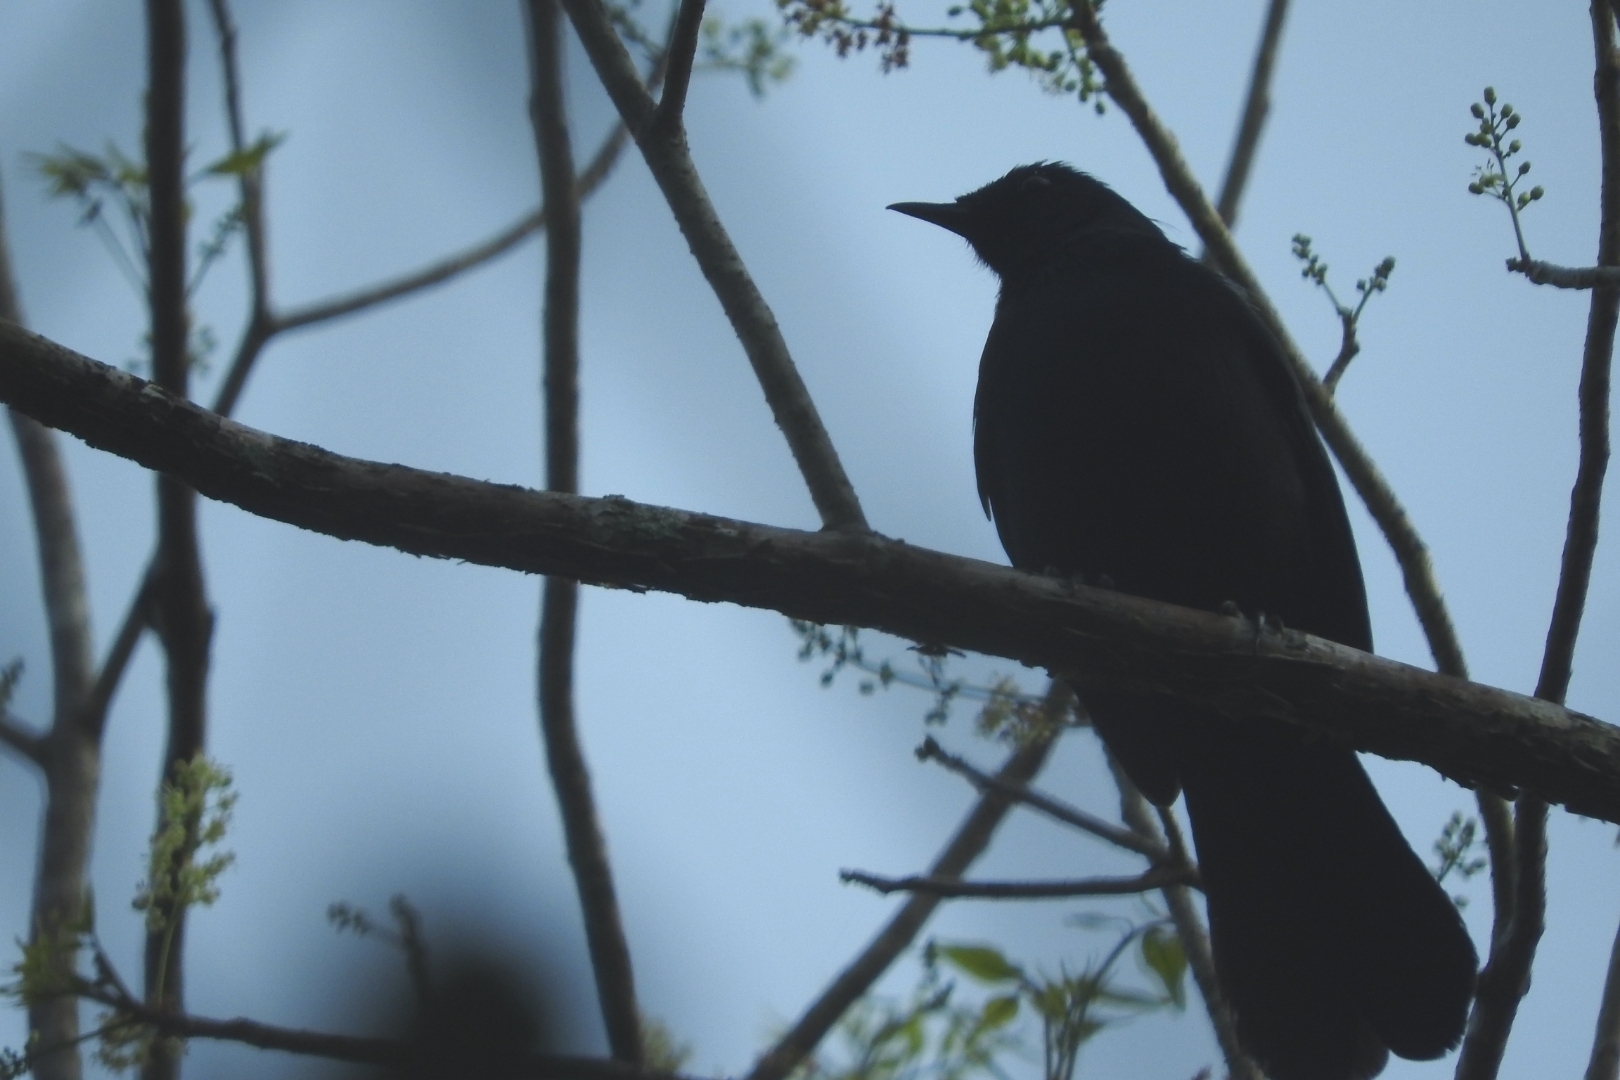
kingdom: Animalia
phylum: Chordata
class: Aves
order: Passeriformes
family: Mimidae
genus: Melanoptila
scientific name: Melanoptila glabrirostris
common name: Black catbird
